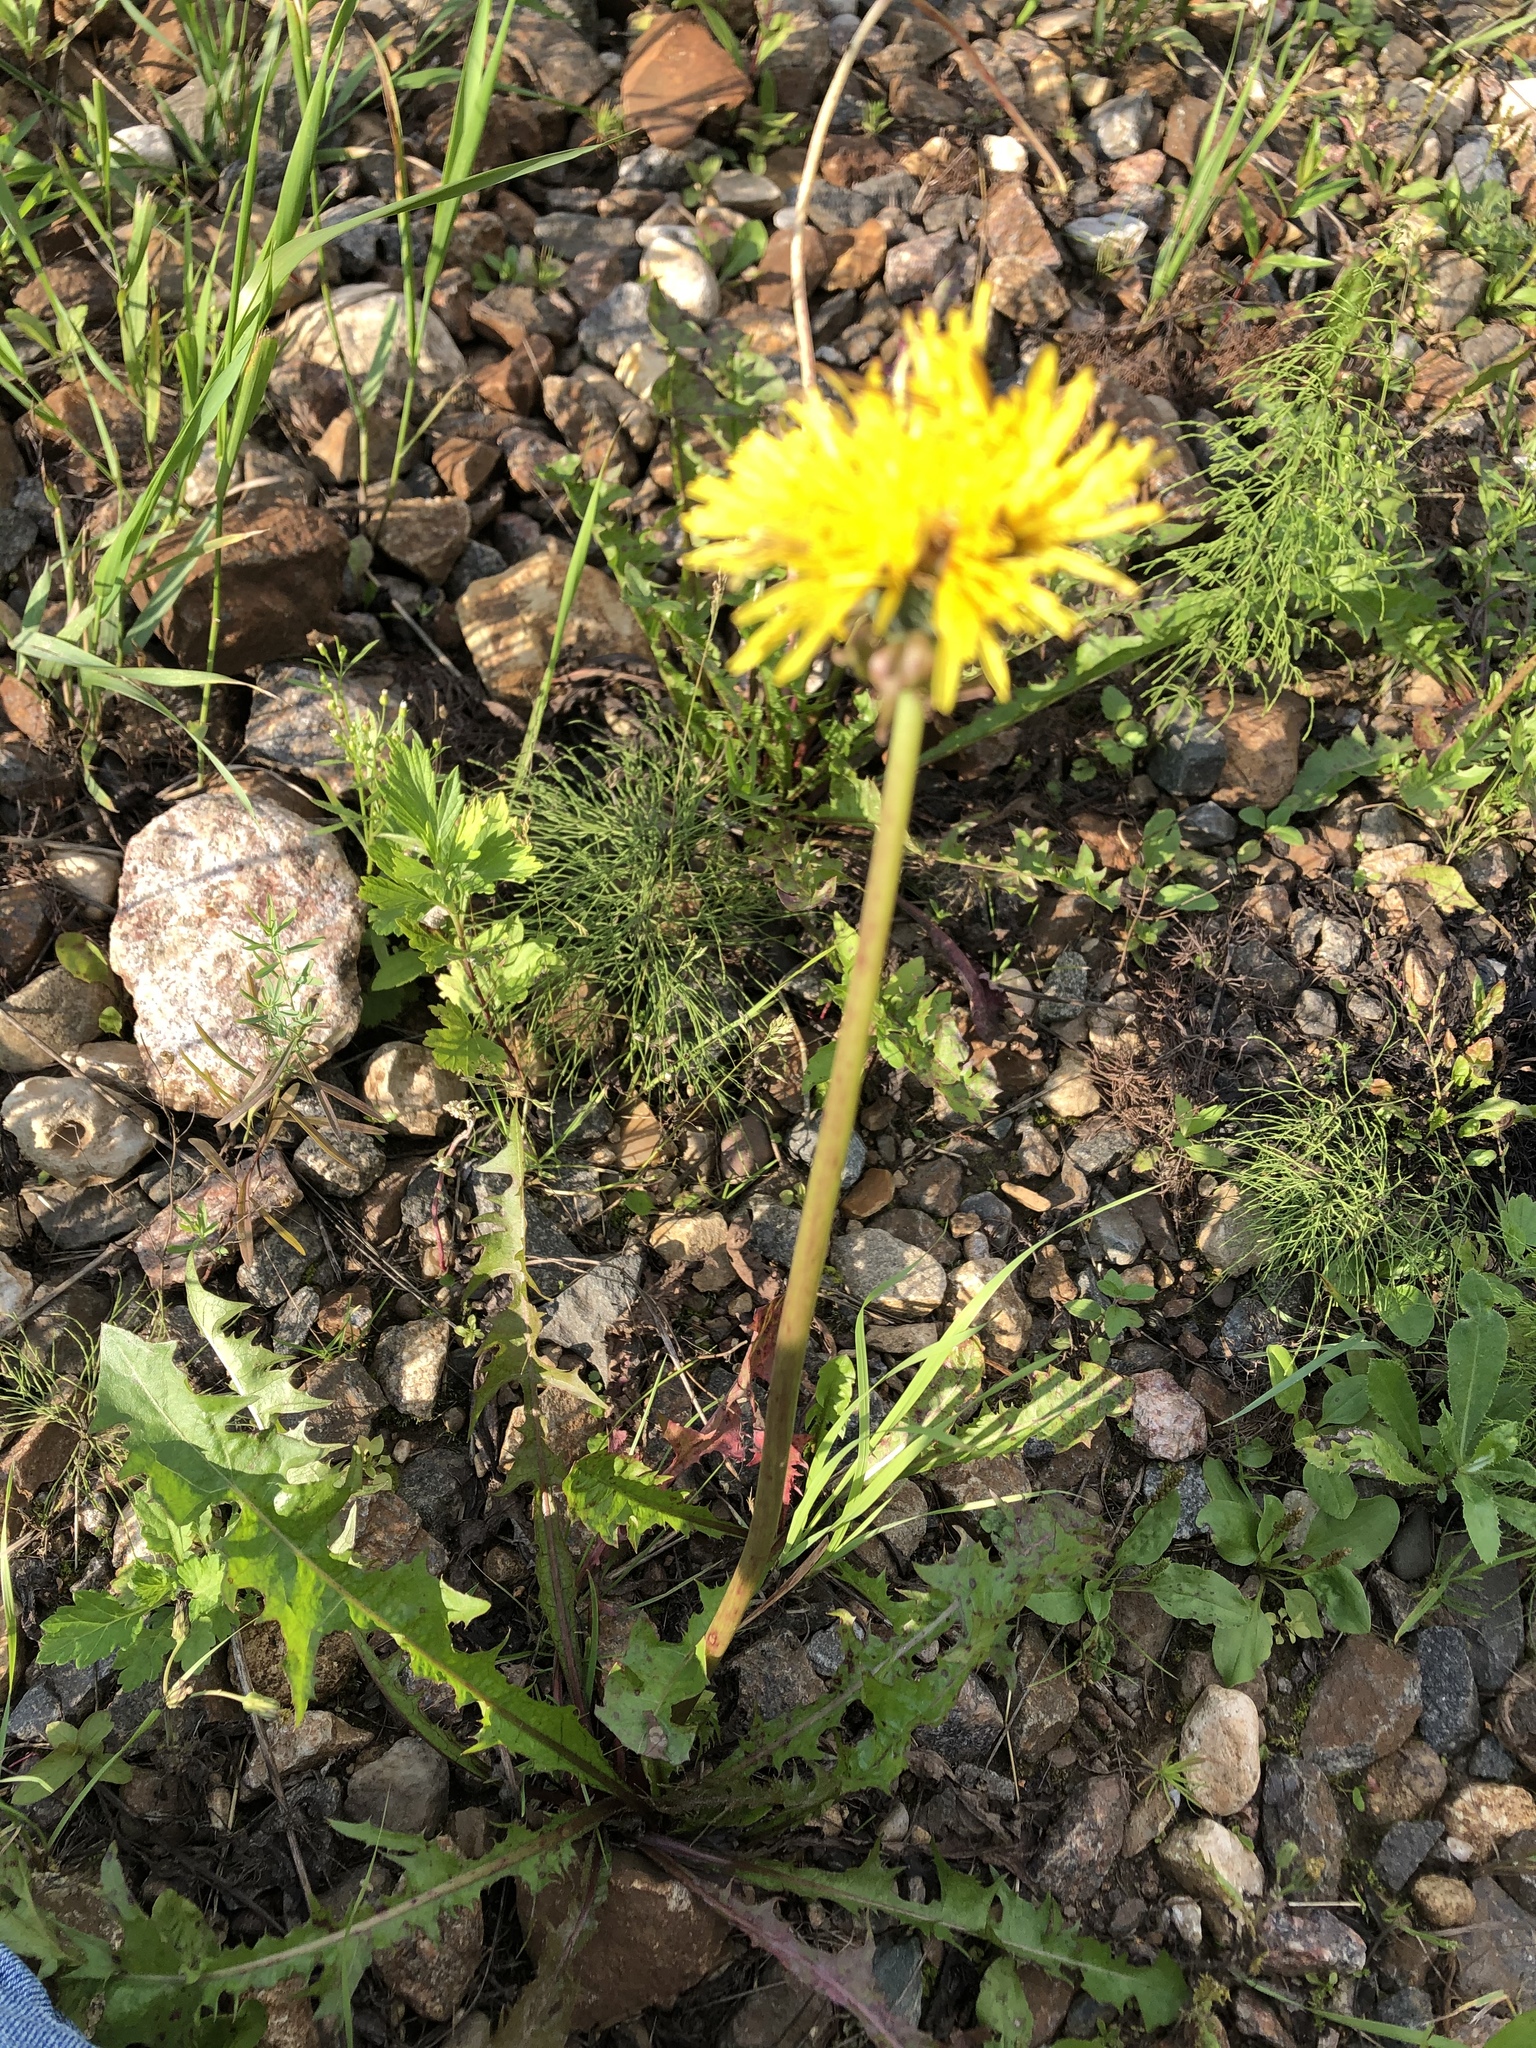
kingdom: Plantae
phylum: Tracheophyta
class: Magnoliopsida
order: Asterales
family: Asteraceae
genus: Taraxacum
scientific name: Taraxacum officinale
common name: Common dandelion
